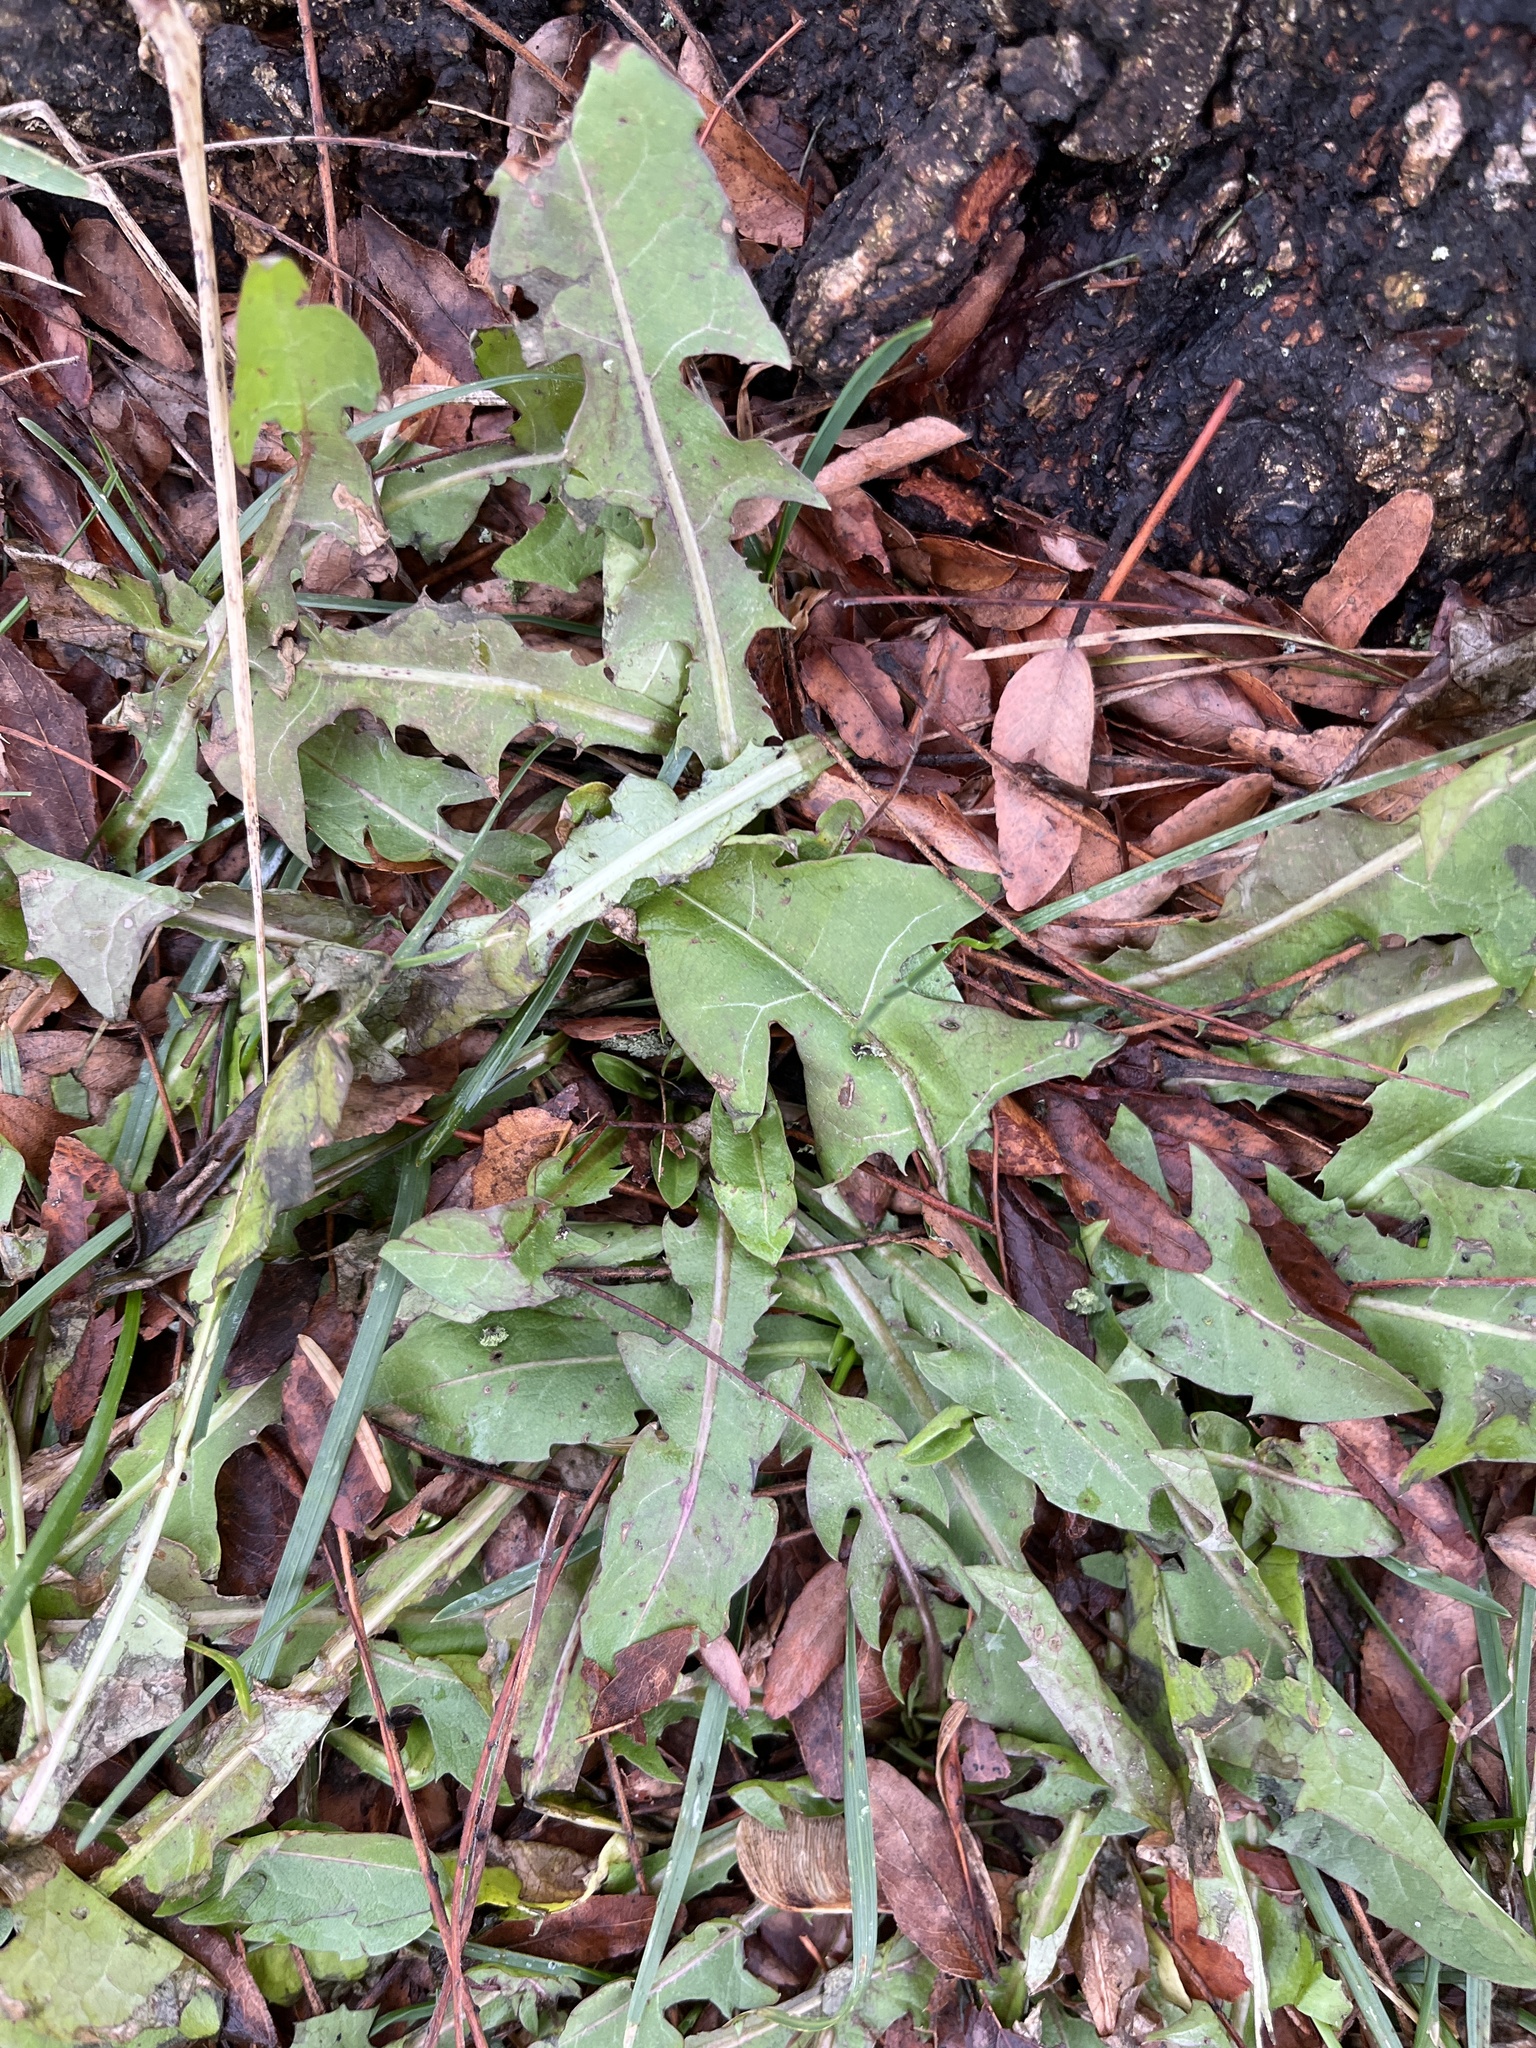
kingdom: Plantae
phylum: Tracheophyta
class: Magnoliopsida
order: Asterales
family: Asteraceae
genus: Taraxacum
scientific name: Taraxacum officinale
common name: Common dandelion
